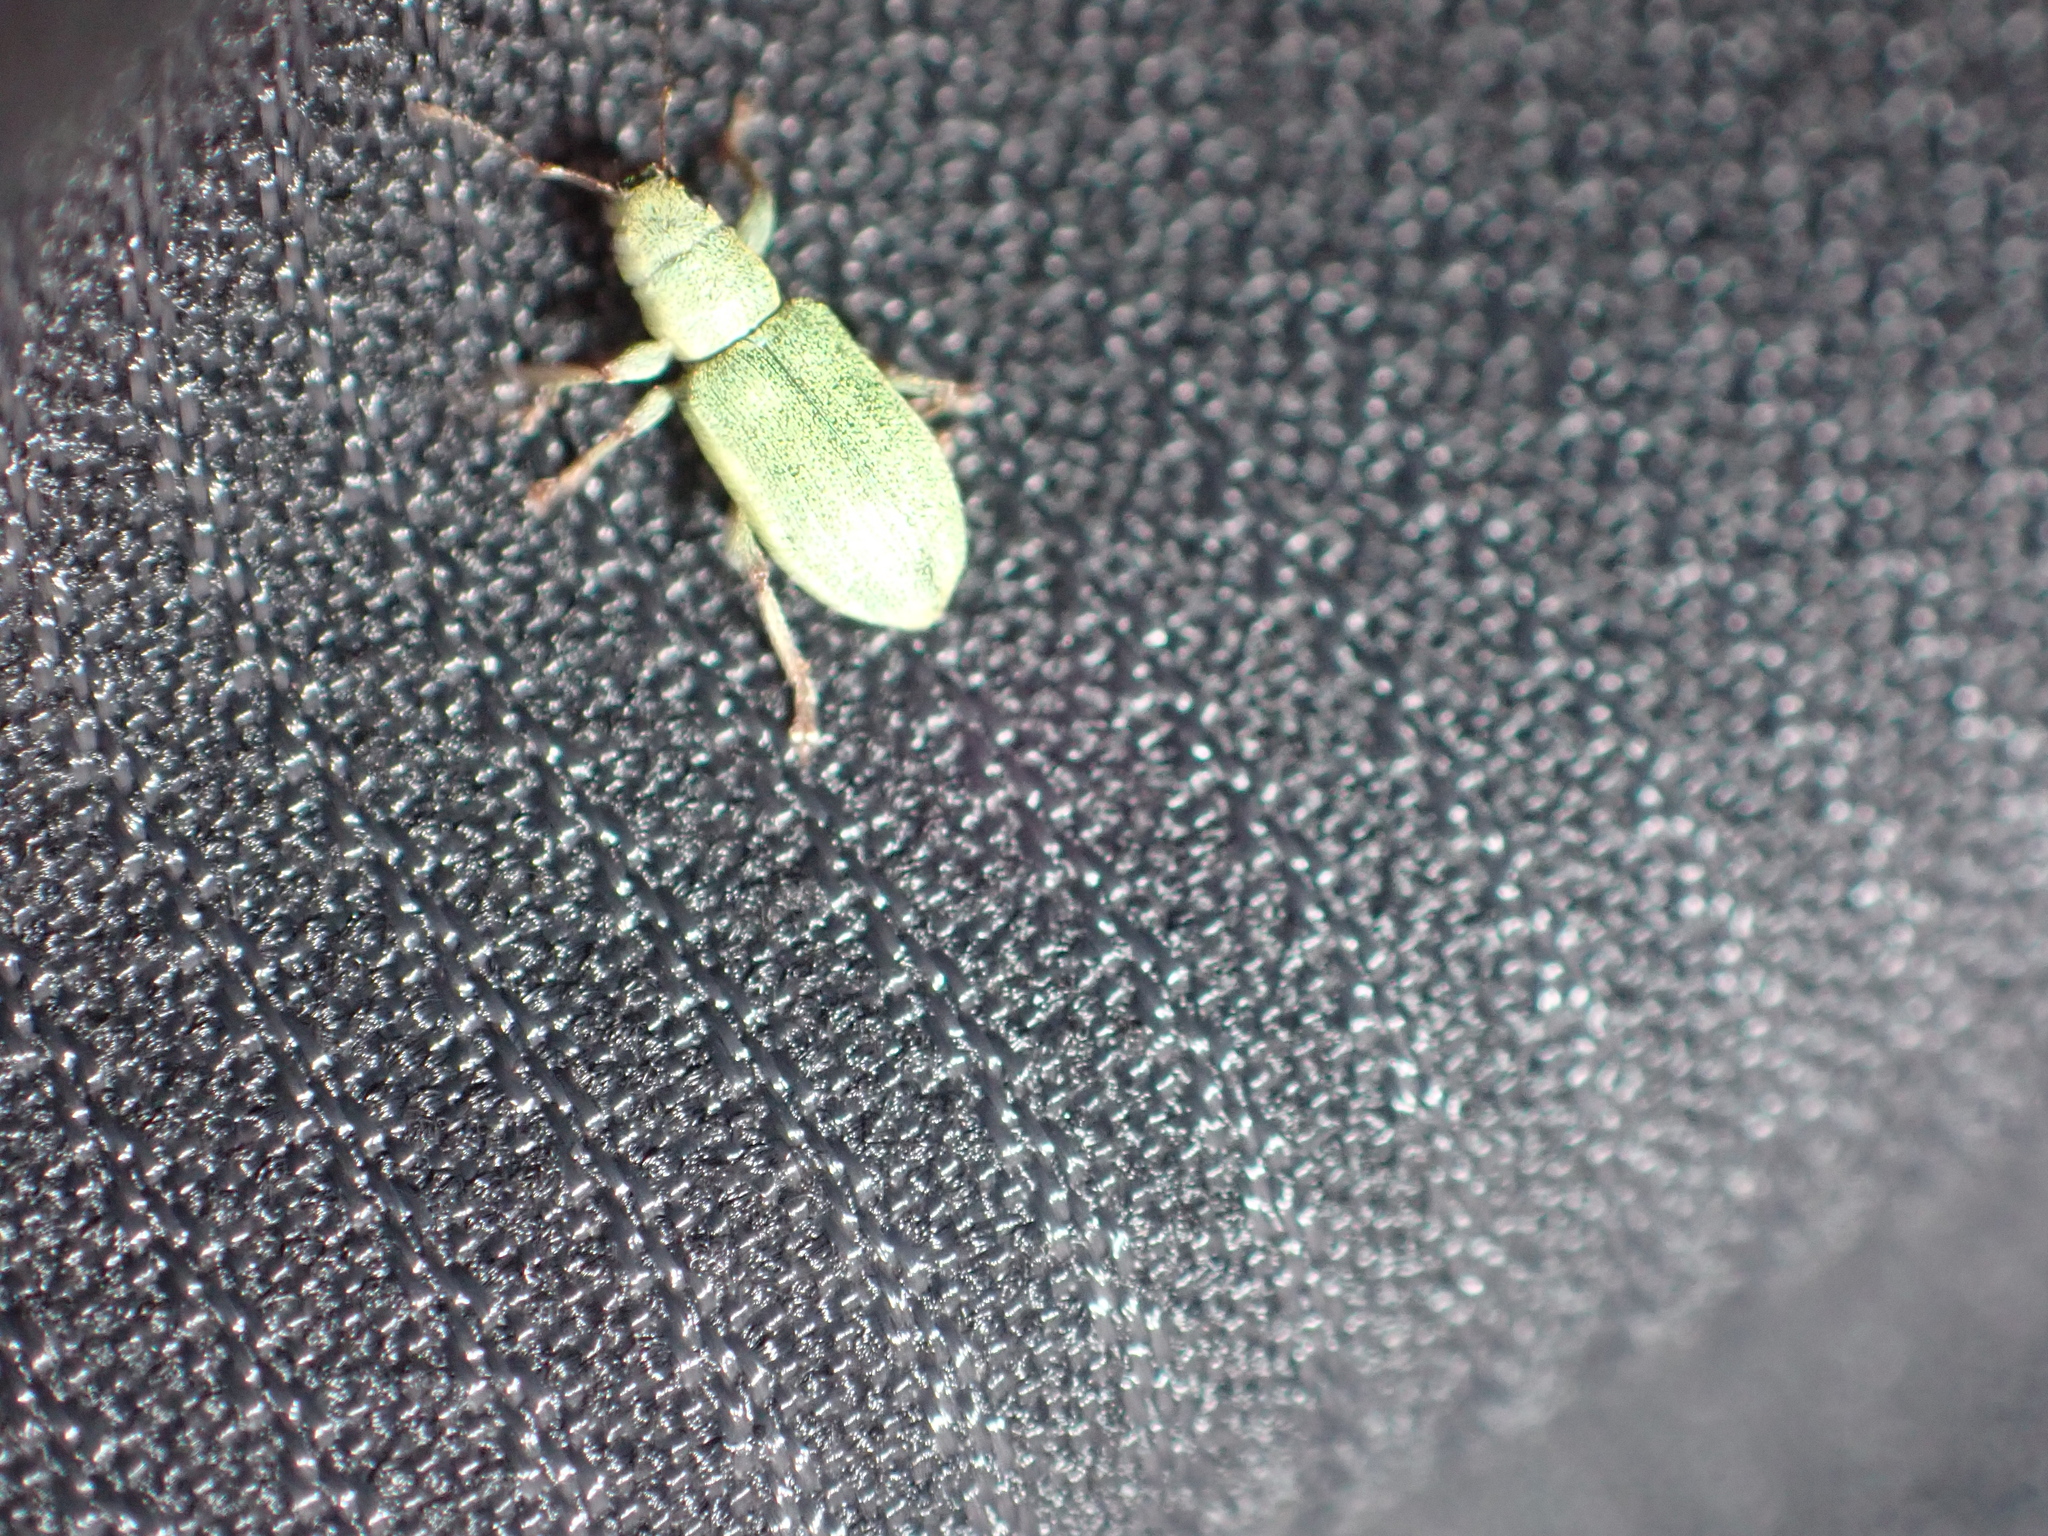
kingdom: Animalia
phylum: Arthropoda
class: Insecta
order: Coleoptera
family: Curculionidae
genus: Pachyrhinus
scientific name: Pachyrhinus lethierryi
